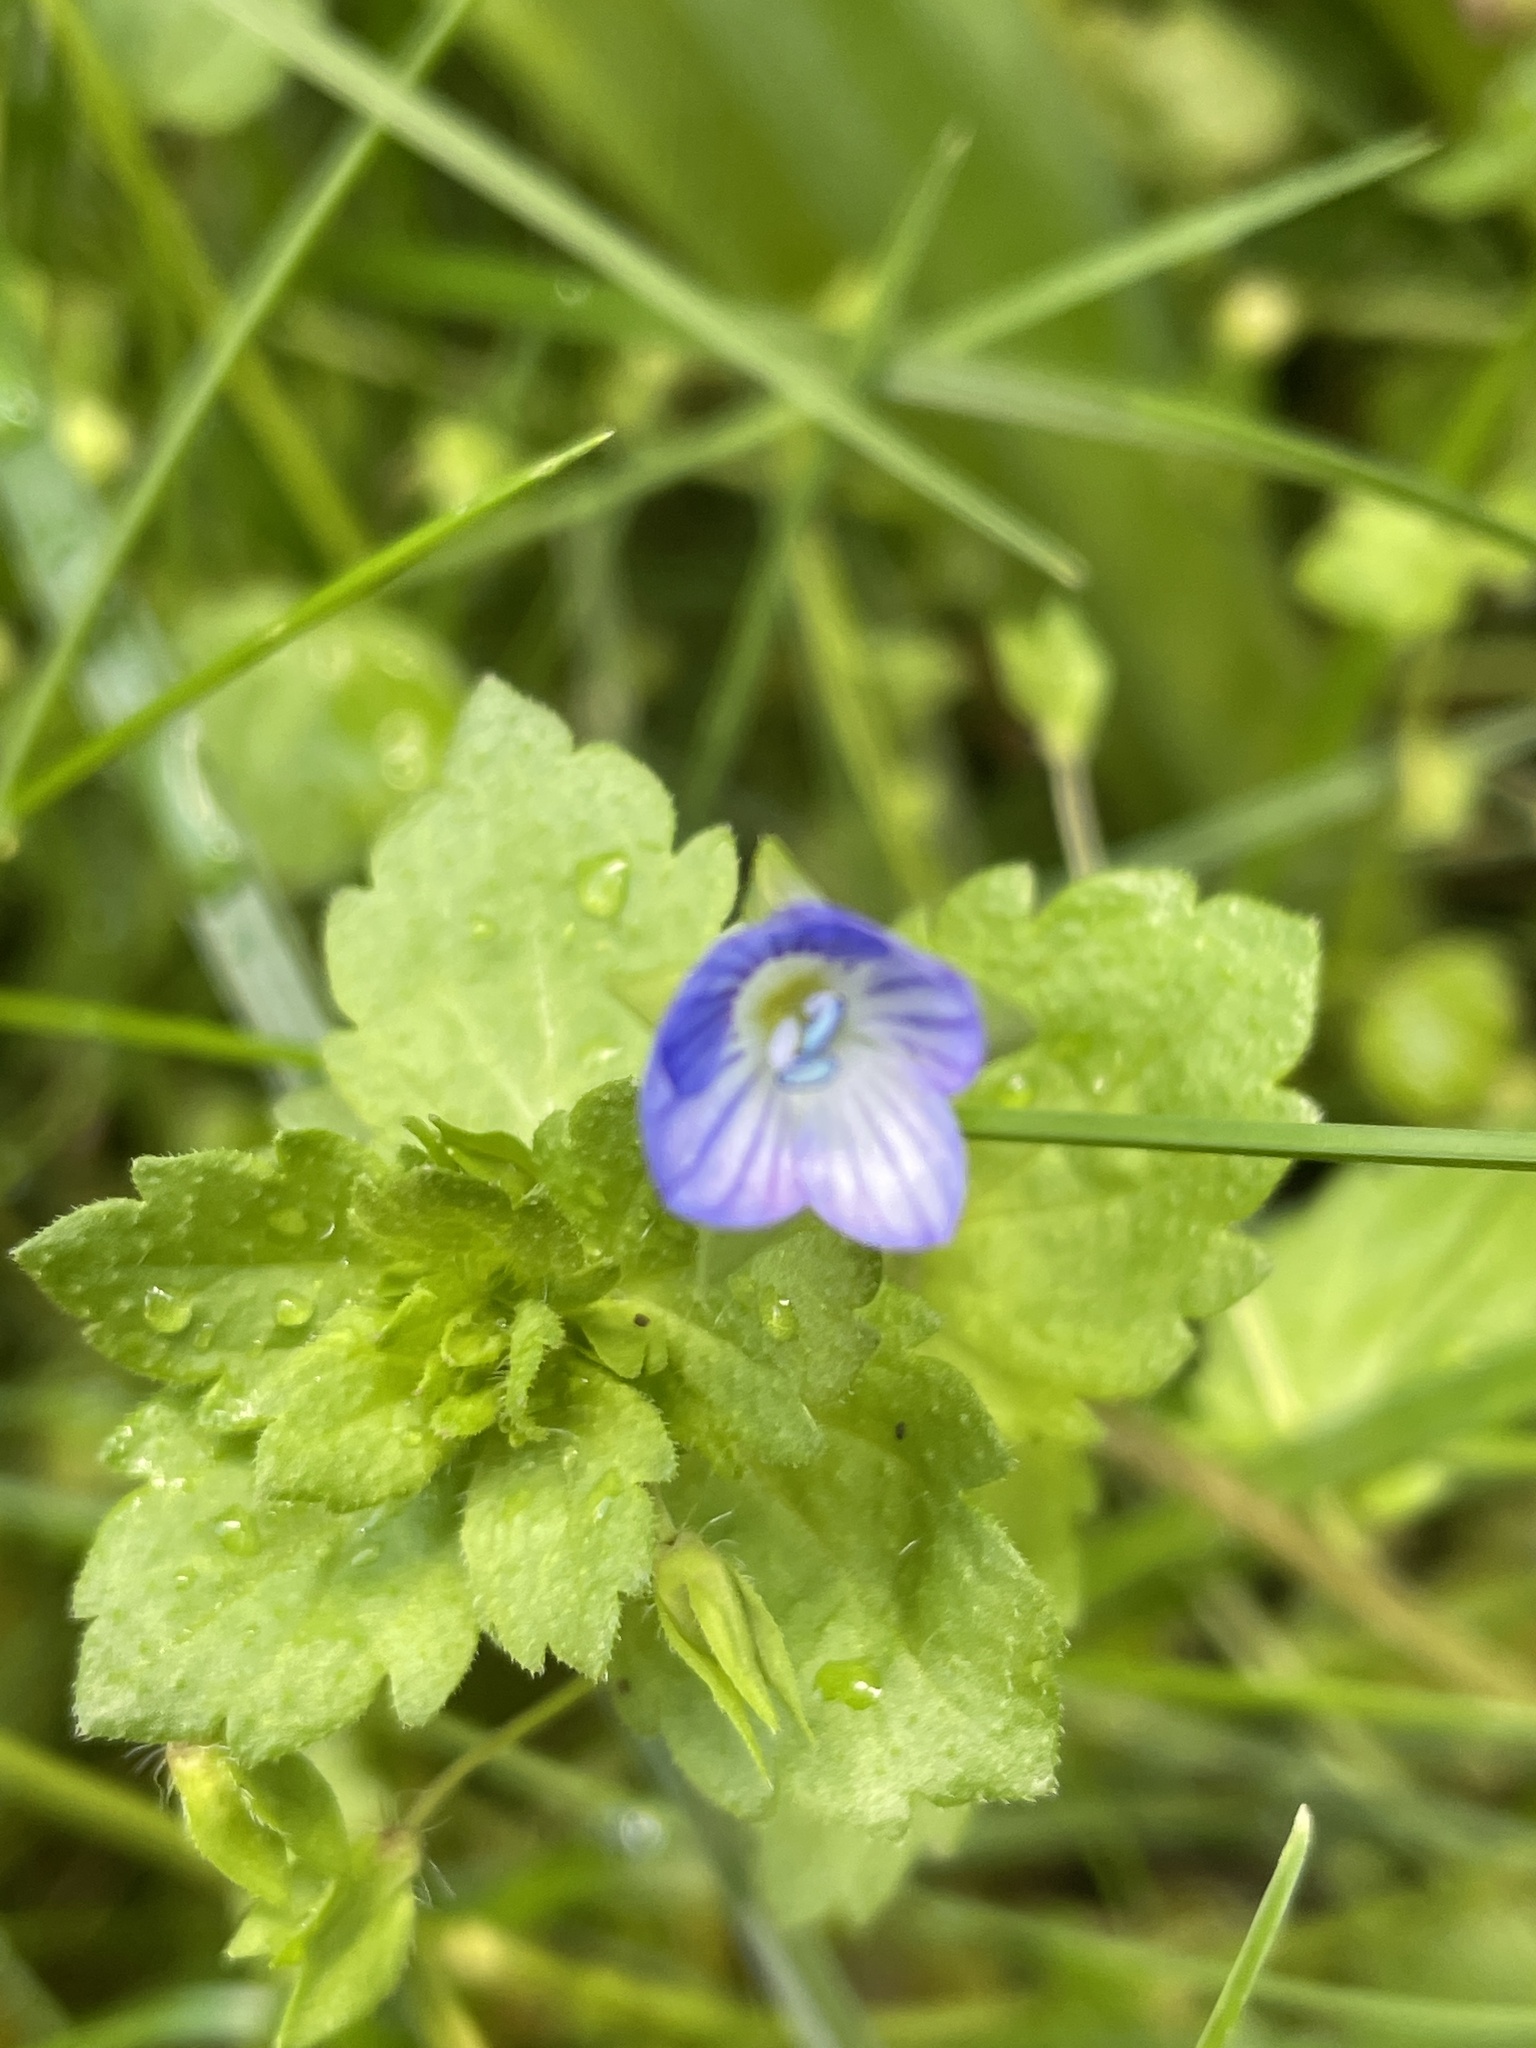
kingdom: Plantae
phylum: Tracheophyta
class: Magnoliopsida
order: Lamiales
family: Plantaginaceae
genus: Veronica
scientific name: Veronica persica
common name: Common field-speedwell
